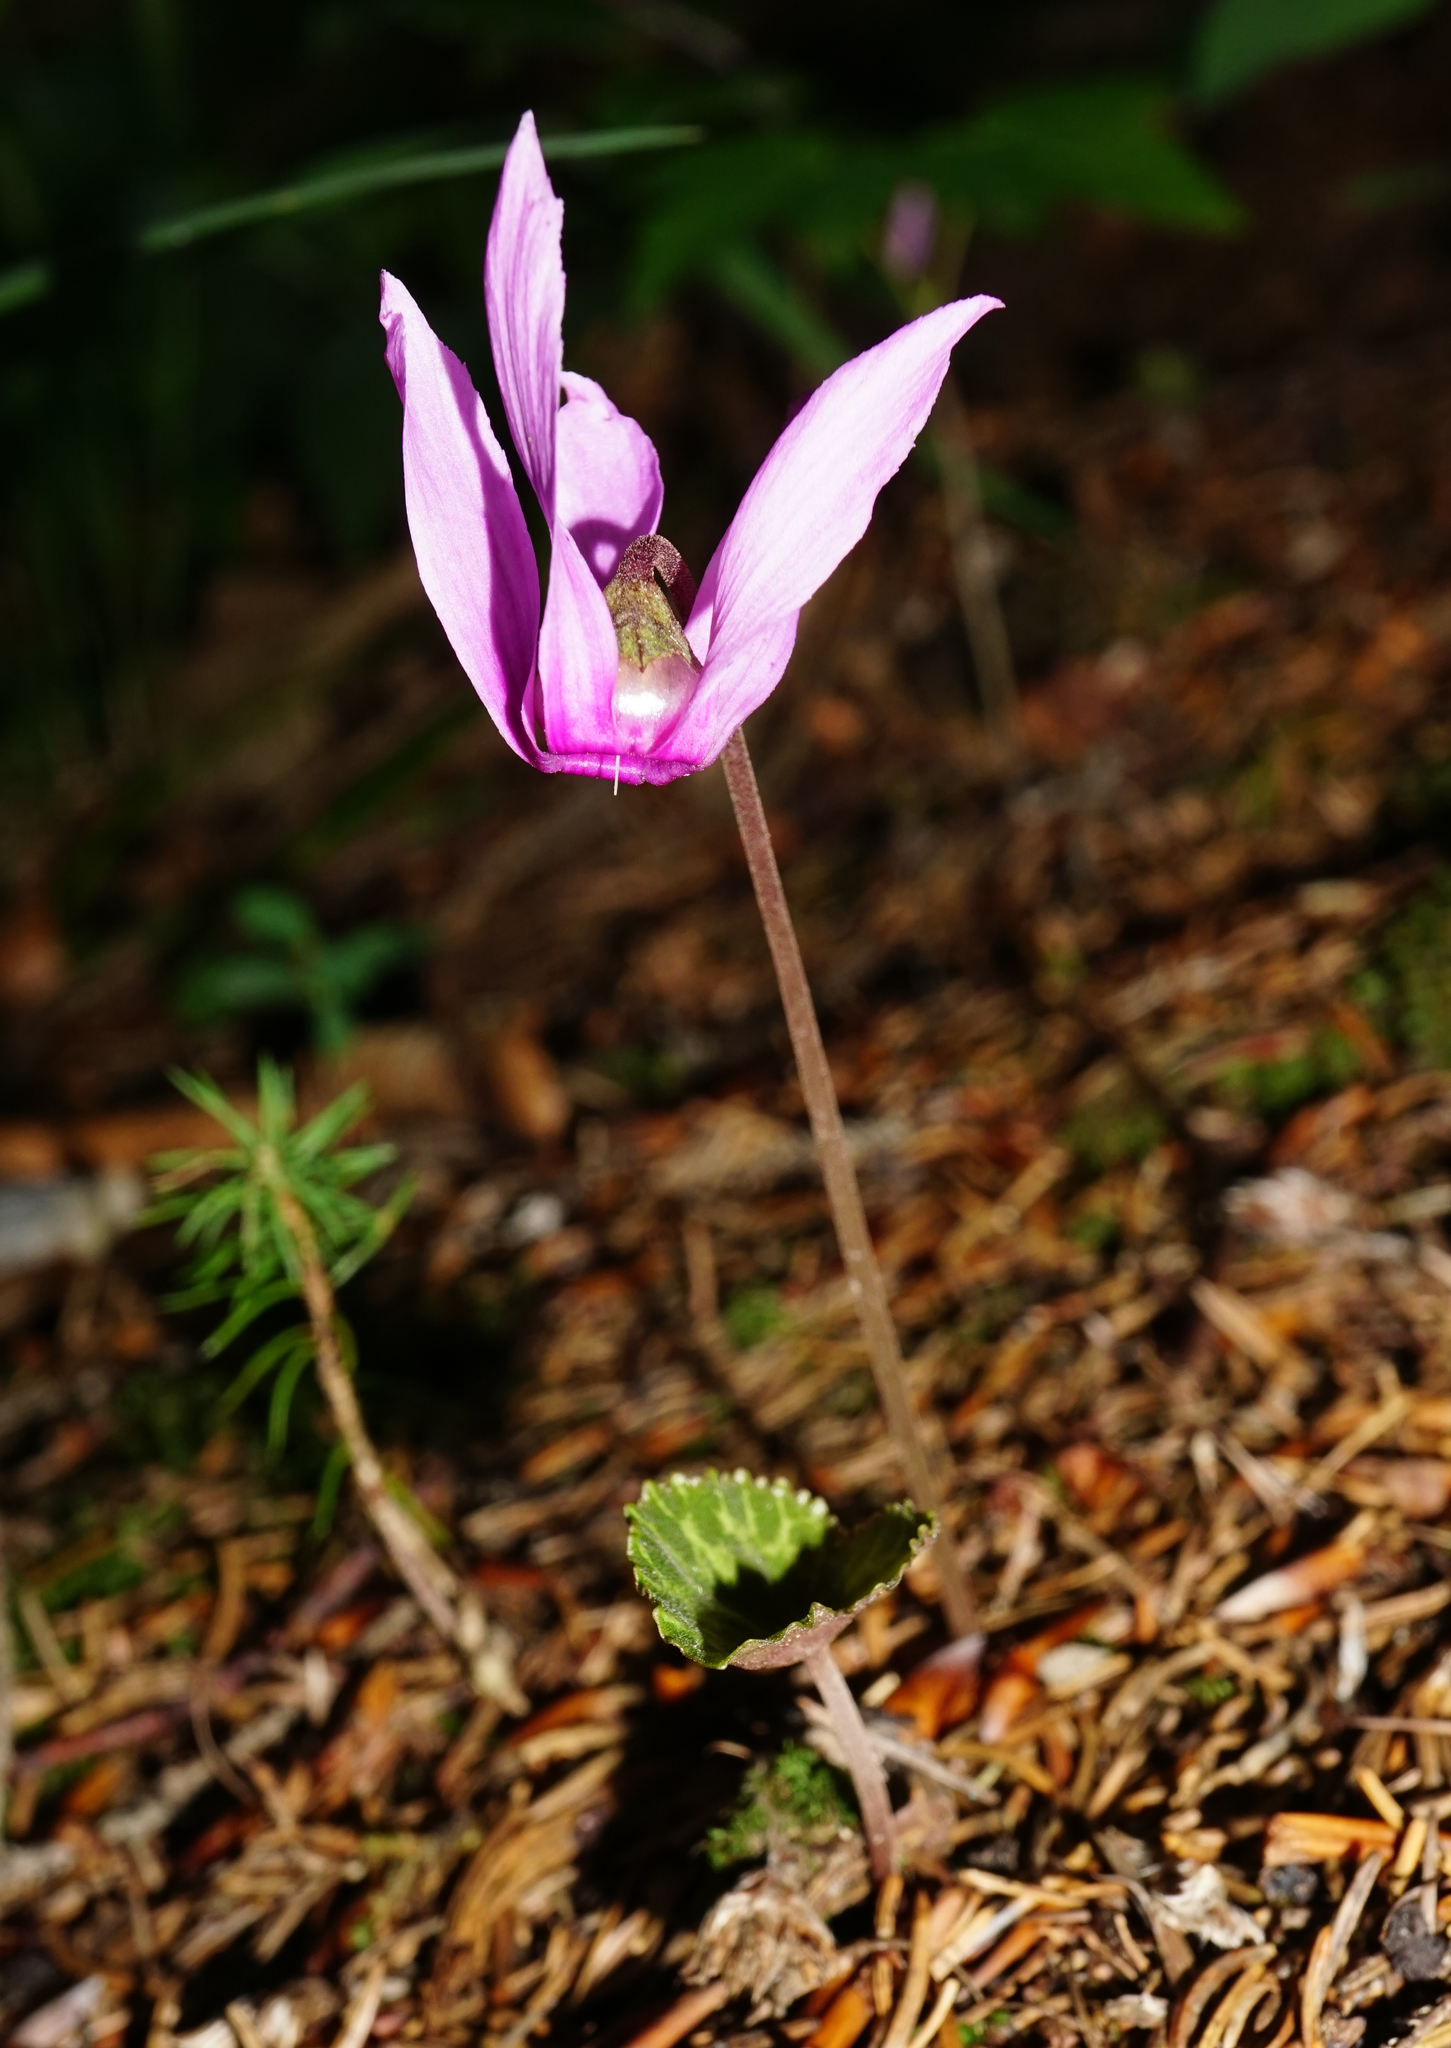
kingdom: Plantae
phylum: Tracheophyta
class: Magnoliopsida
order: Ericales
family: Primulaceae
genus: Cyclamen
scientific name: Cyclamen purpurascens
